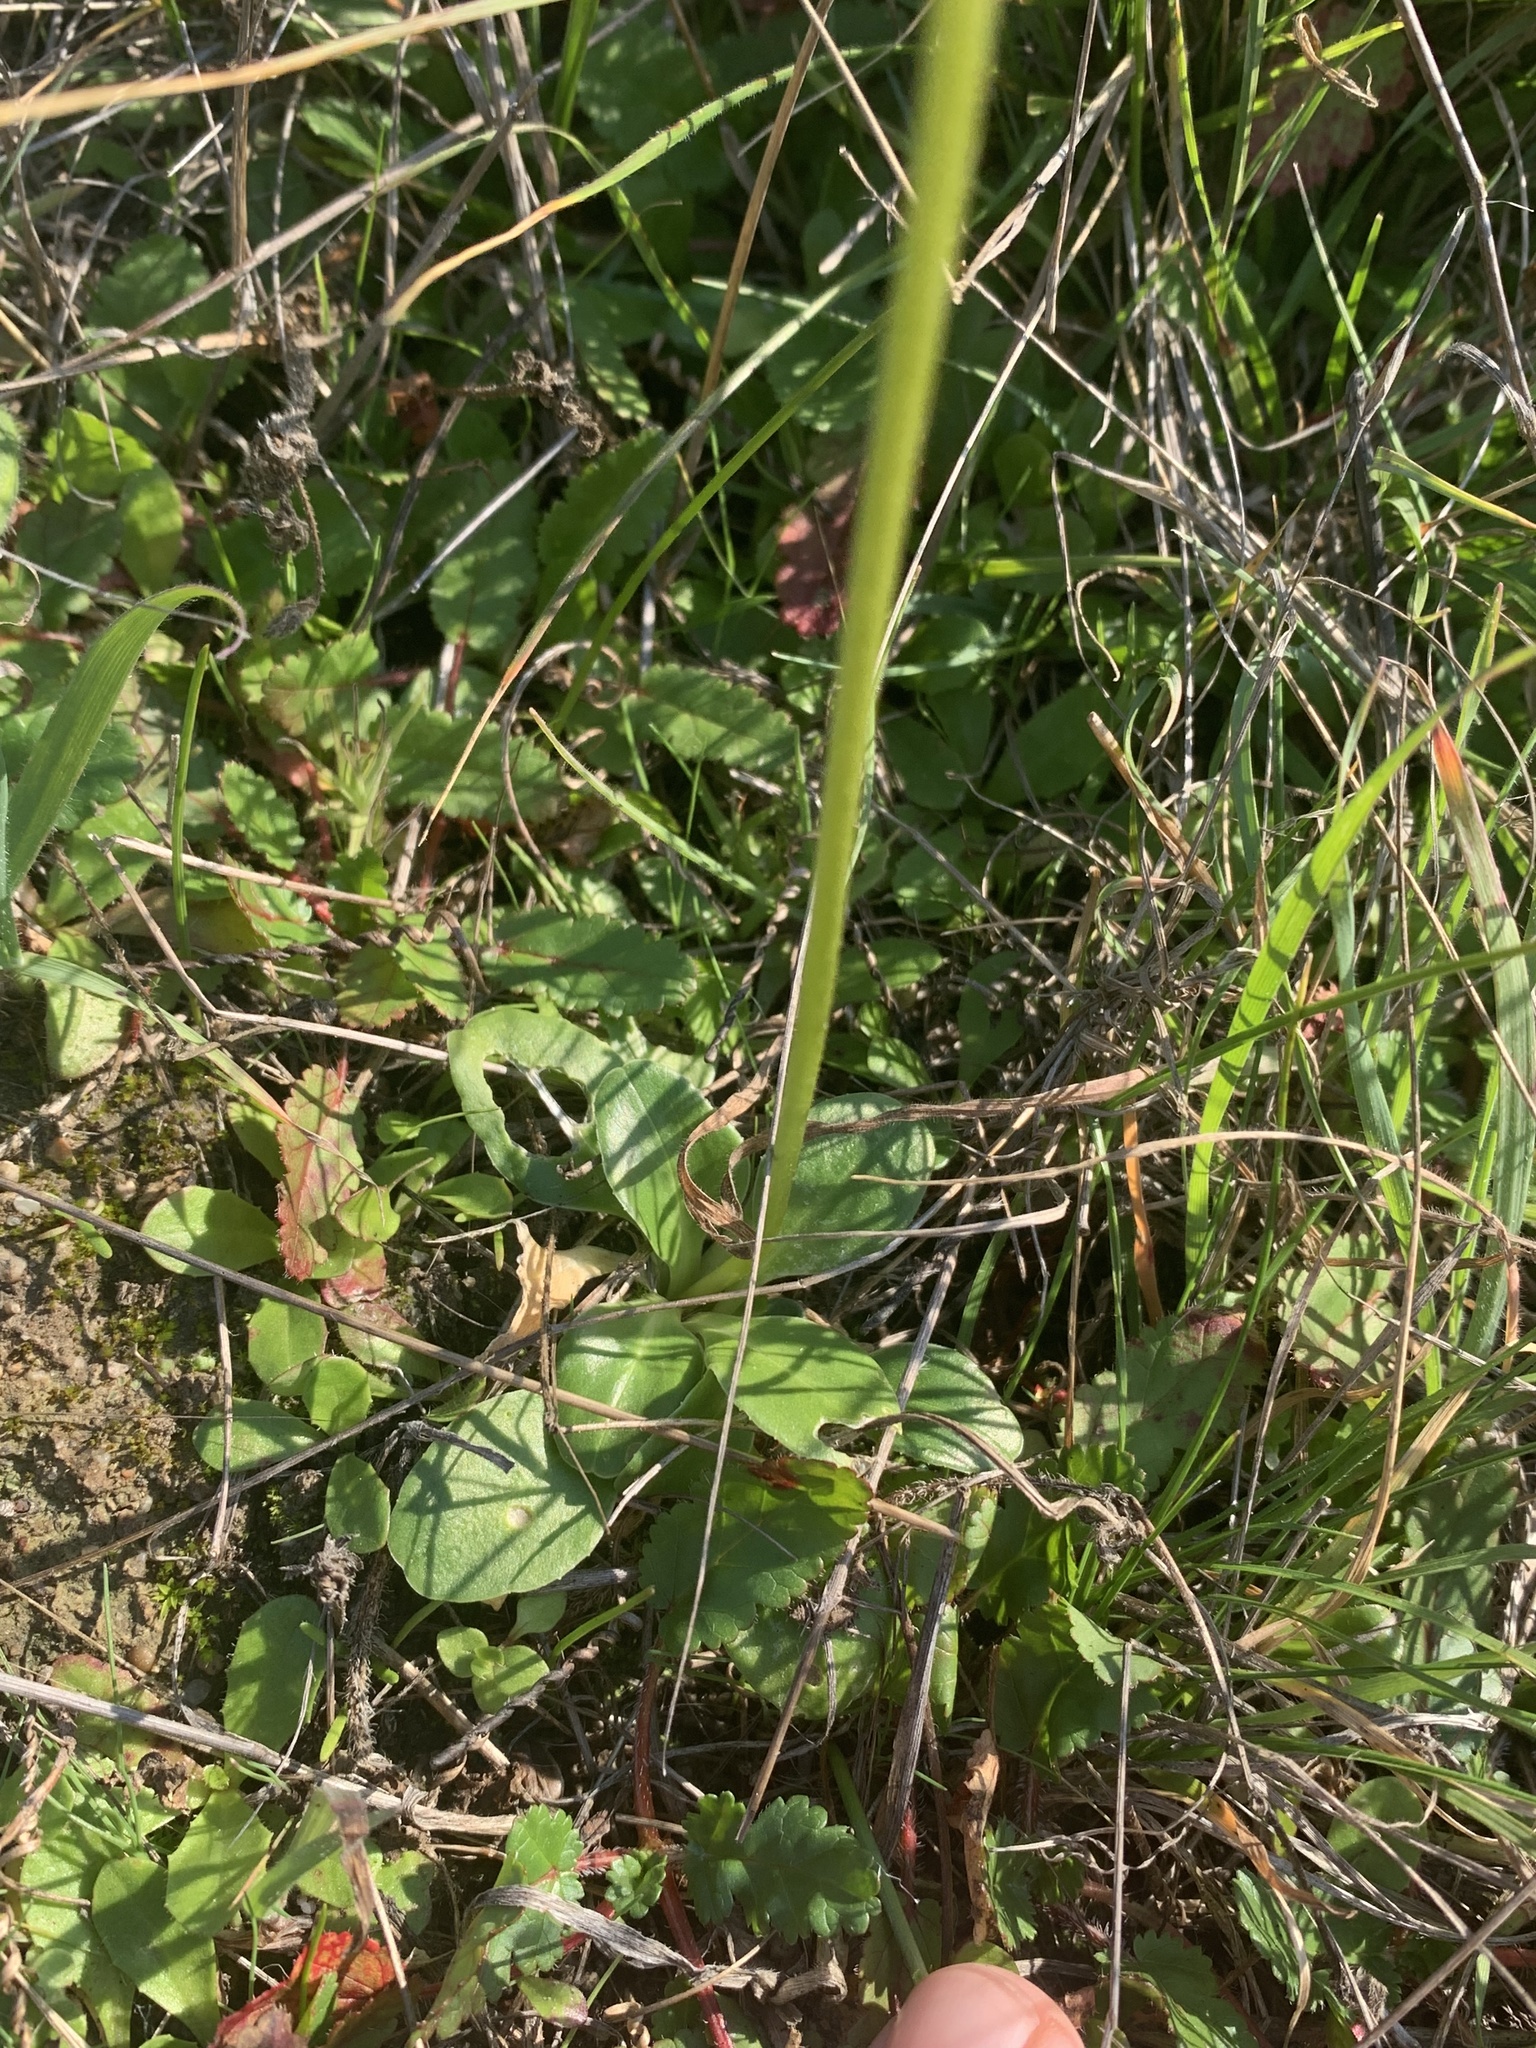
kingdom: Plantae
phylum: Tracheophyta
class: Magnoliopsida
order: Ericales
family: Primulaceae
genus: Dodecatheon
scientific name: Dodecatheon clevelandii
